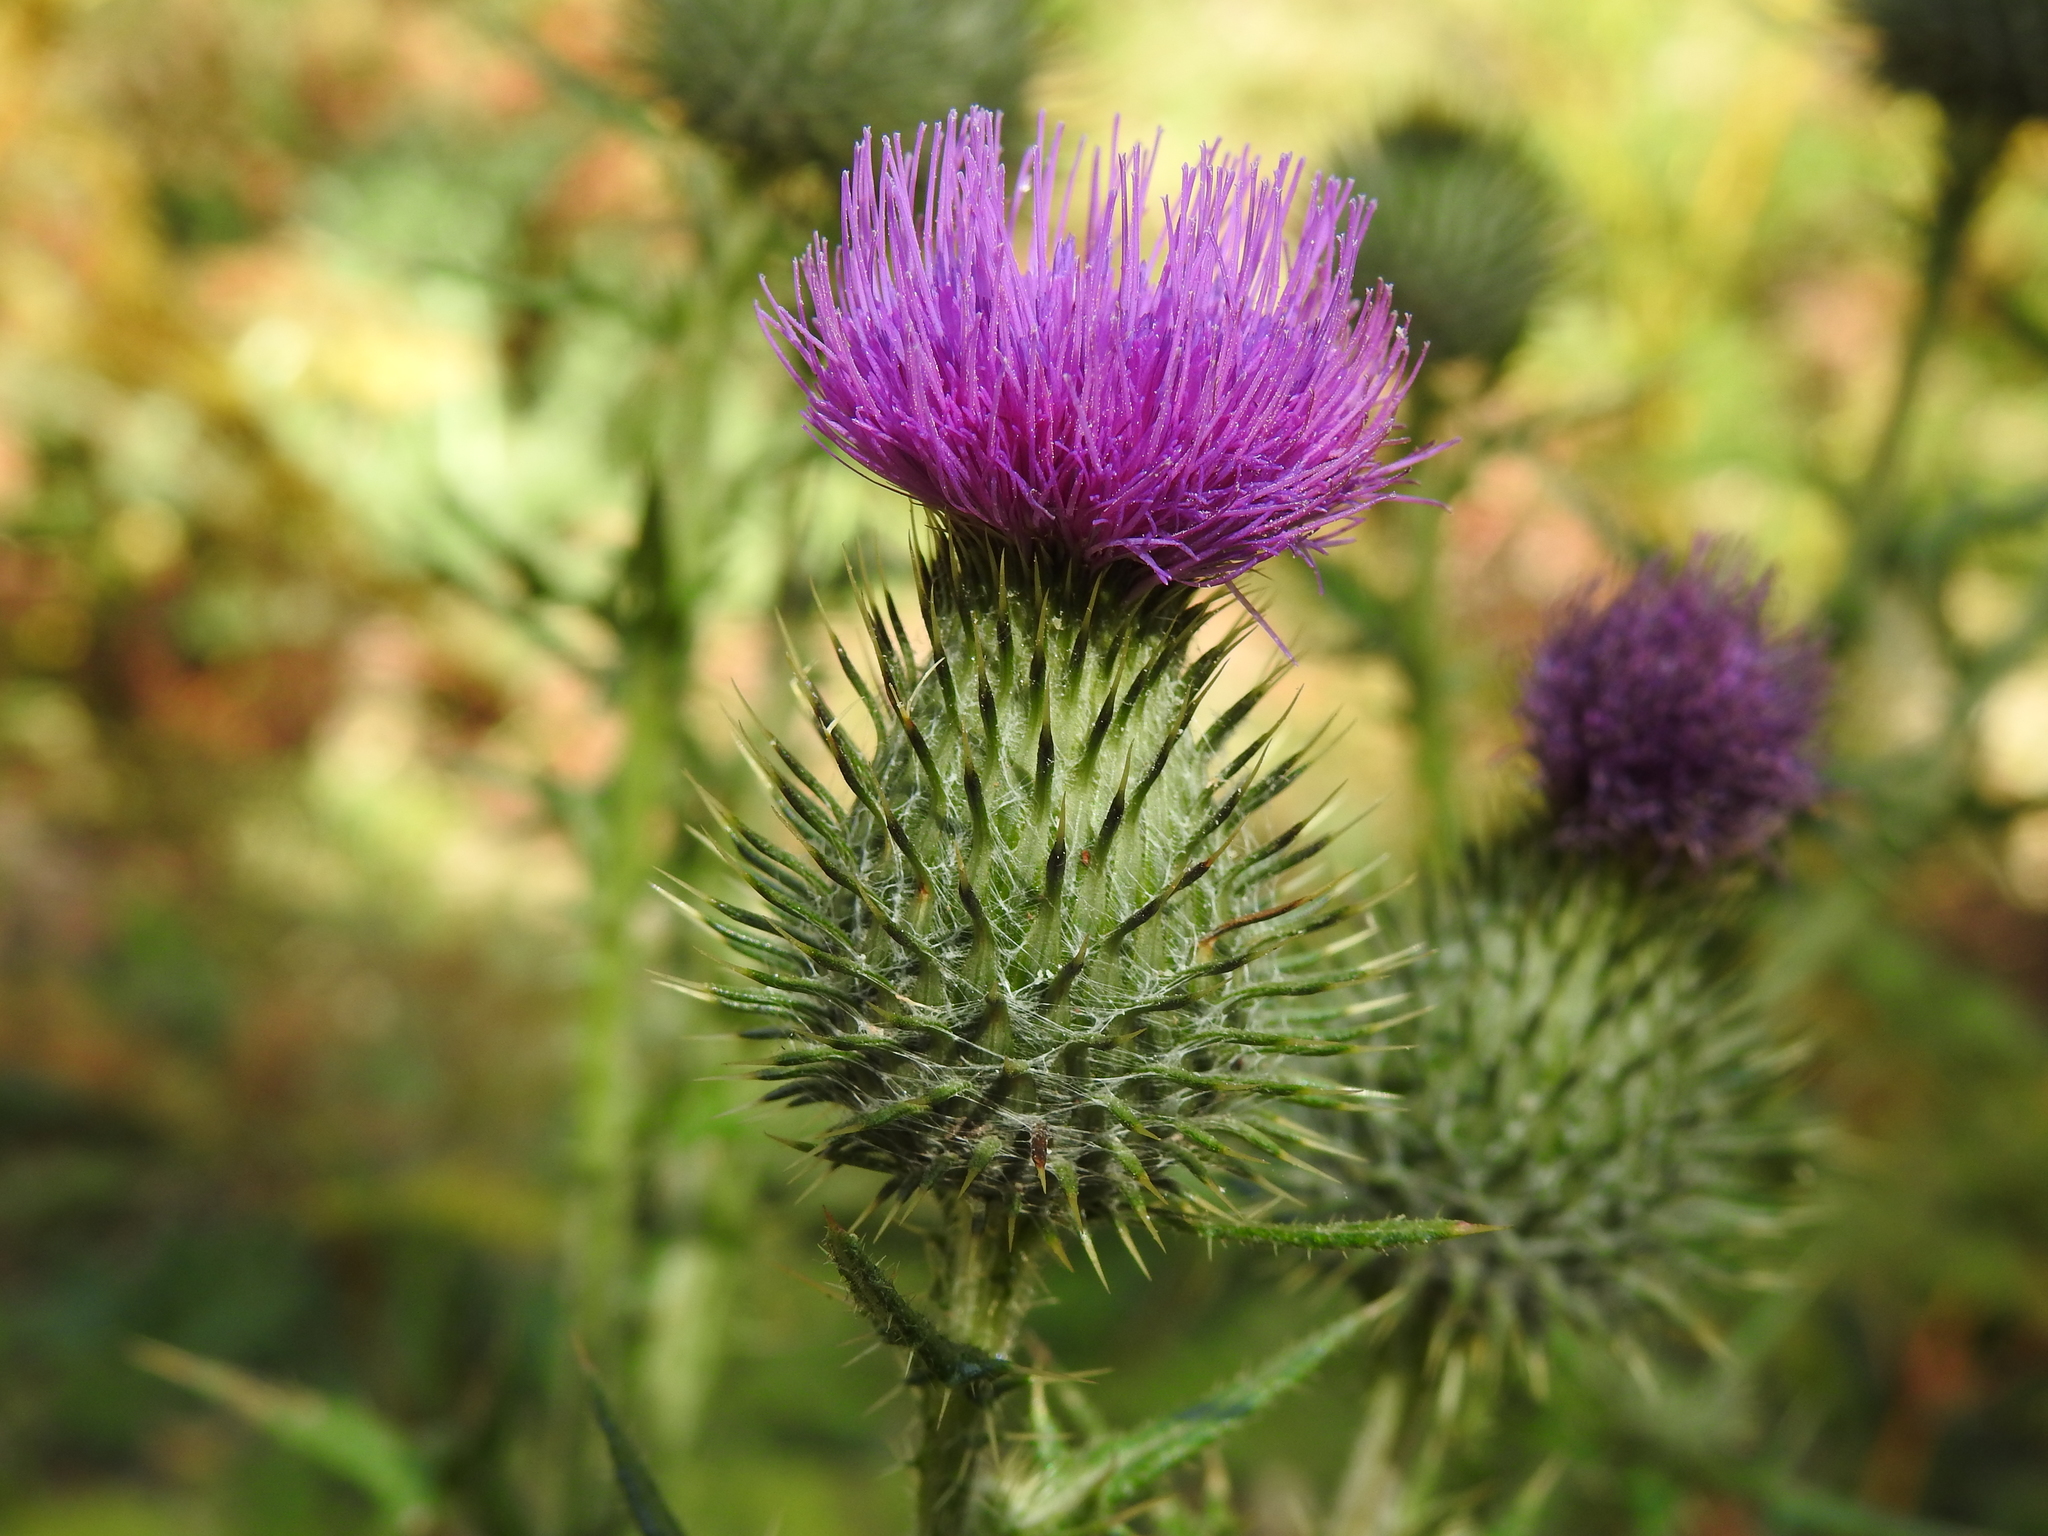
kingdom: Plantae
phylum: Tracheophyta
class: Magnoliopsida
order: Asterales
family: Asteraceae
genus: Cirsium
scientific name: Cirsium vulgare
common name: Bull thistle
